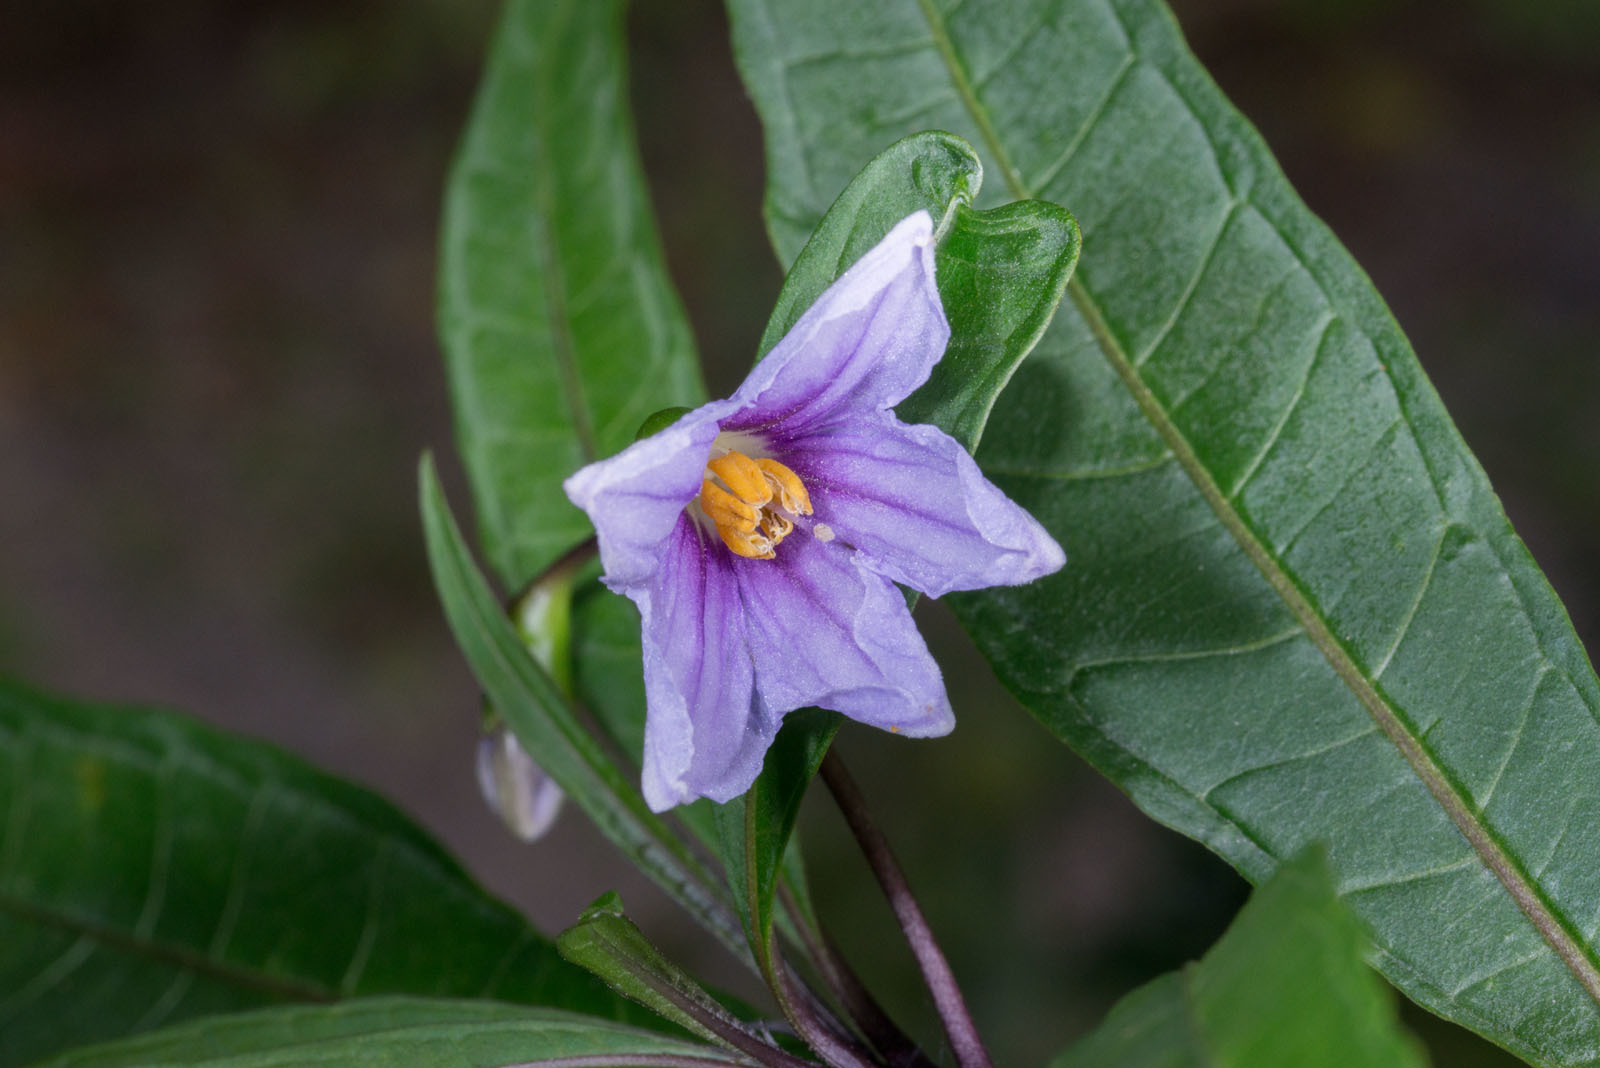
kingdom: Plantae
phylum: Tracheophyta
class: Magnoliopsida
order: Solanales
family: Solanaceae
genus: Solanum
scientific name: Solanum aviculare
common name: New zealand nightshade
